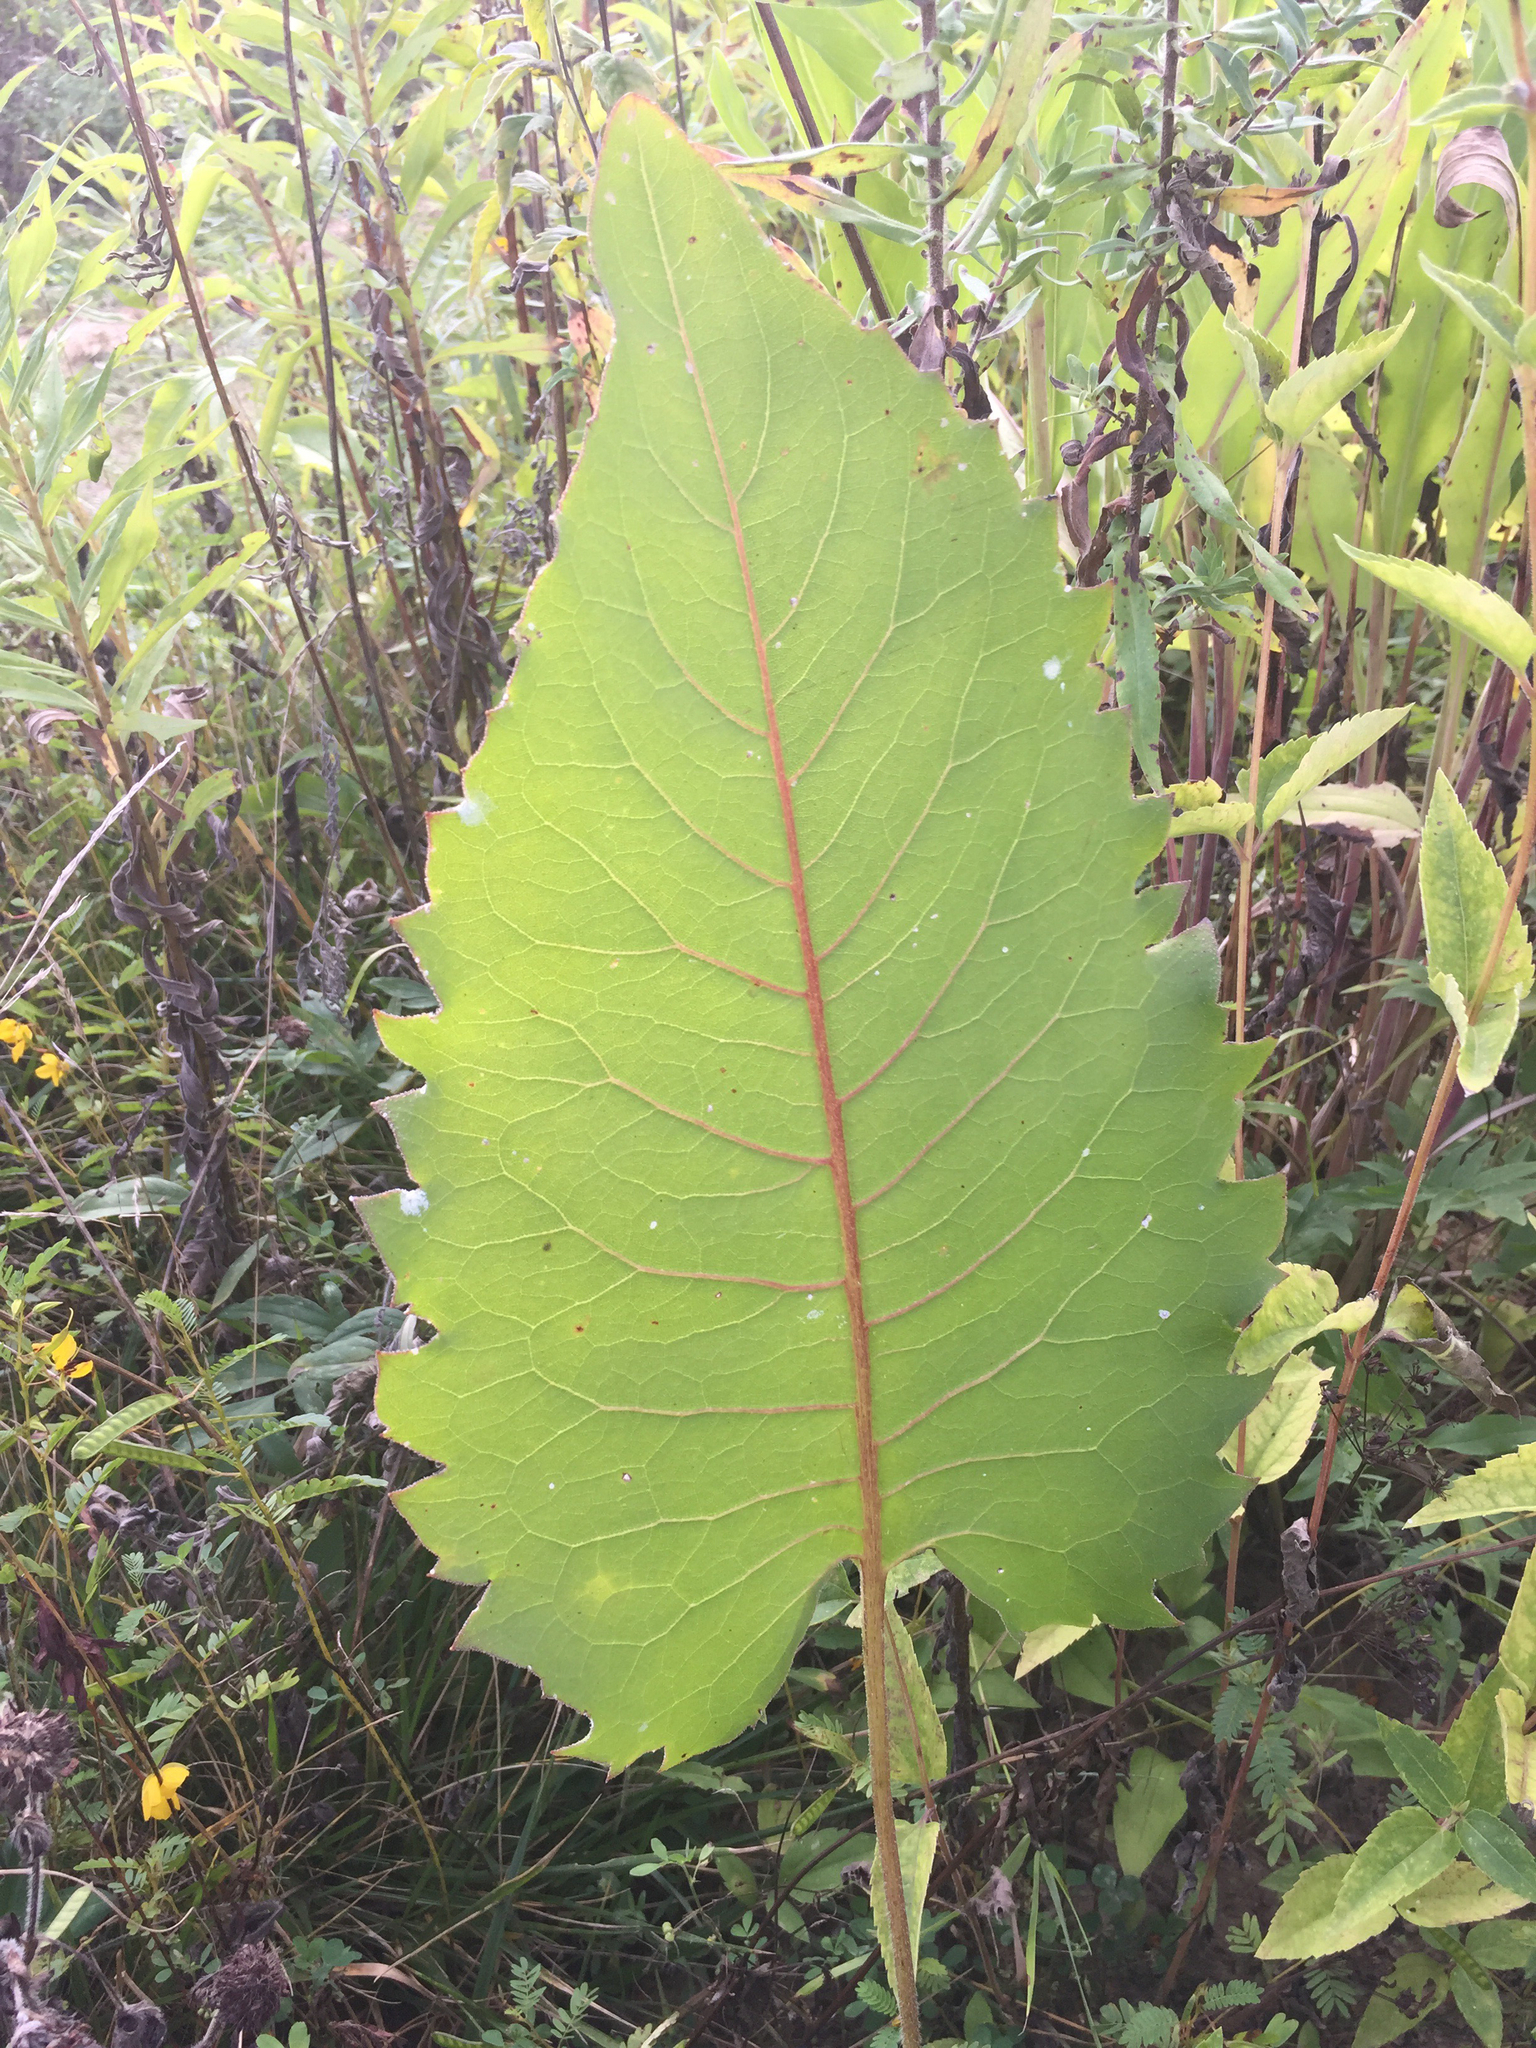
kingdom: Plantae
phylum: Tracheophyta
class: Magnoliopsida
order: Asterales
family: Asteraceae
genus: Silphium
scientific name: Silphium terebinthinaceum
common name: Basal-leaf rosinweed
